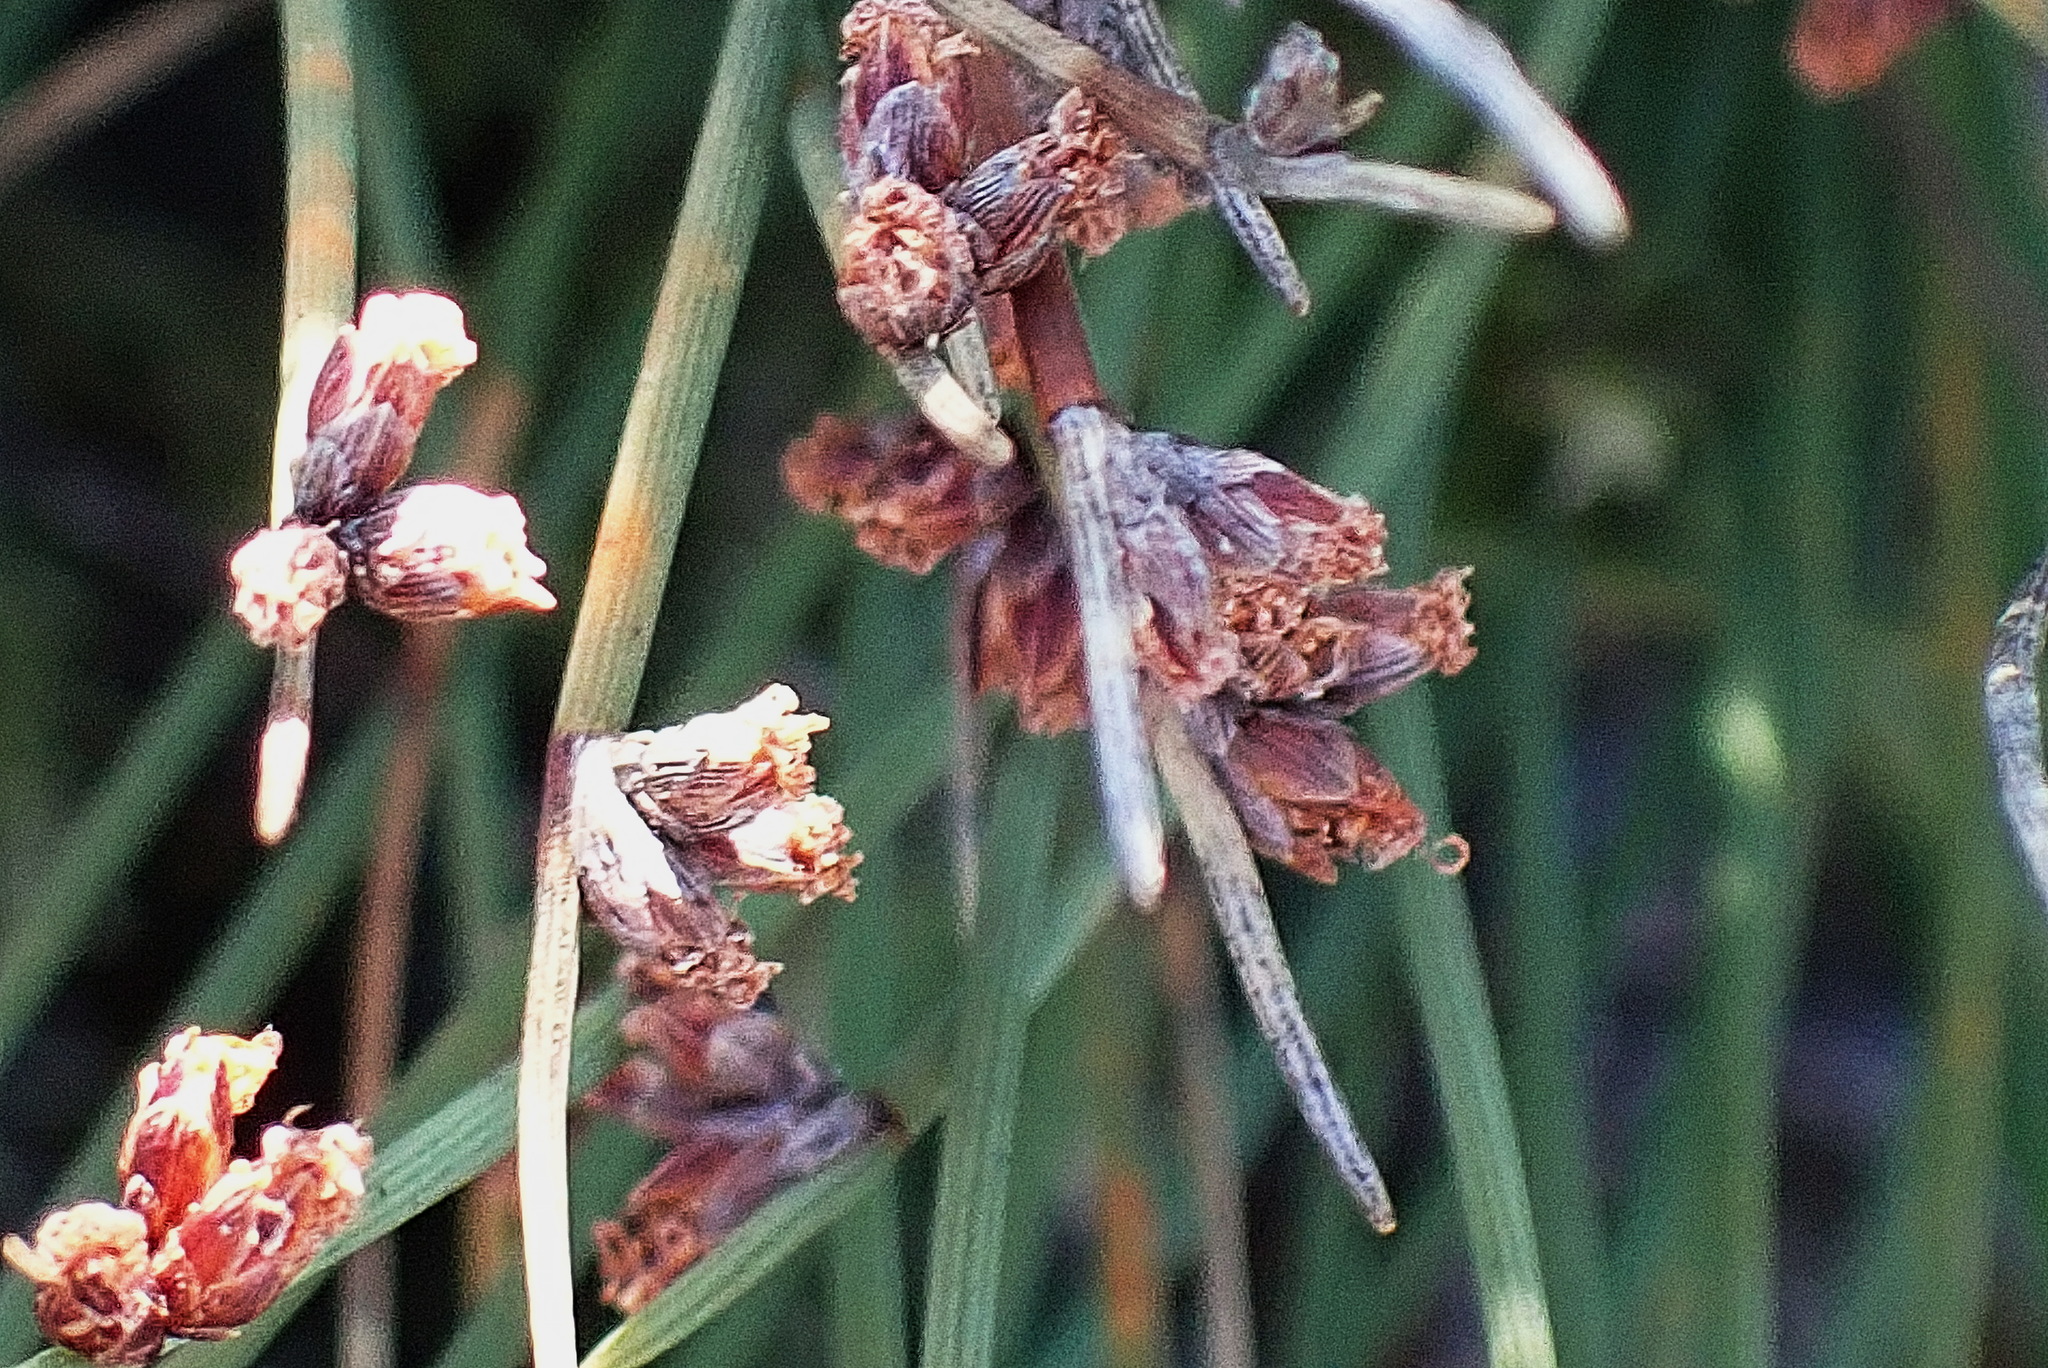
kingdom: Plantae
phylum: Tracheophyta
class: Liliopsida
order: Poales
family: Cyperaceae
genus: Ficinia
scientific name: Ficinia lateralis
